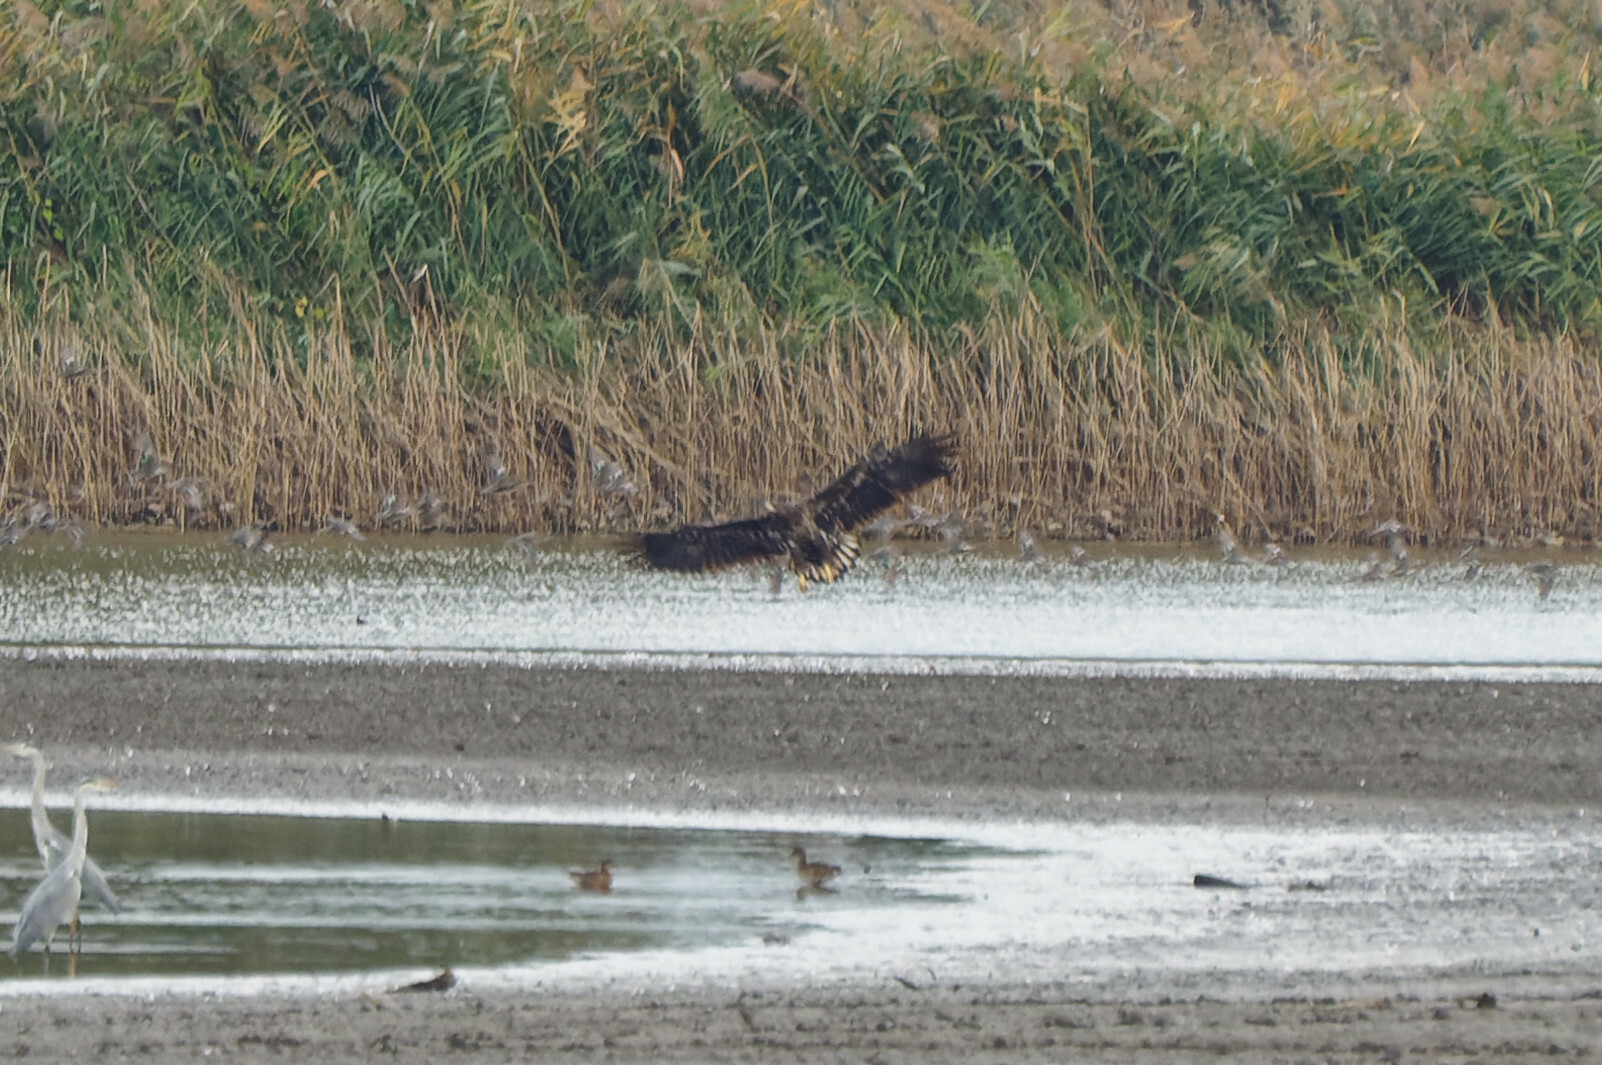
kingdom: Animalia
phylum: Chordata
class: Aves
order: Accipitriformes
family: Accipitridae
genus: Haliaeetus
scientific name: Haliaeetus albicilla
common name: White-tailed eagle
